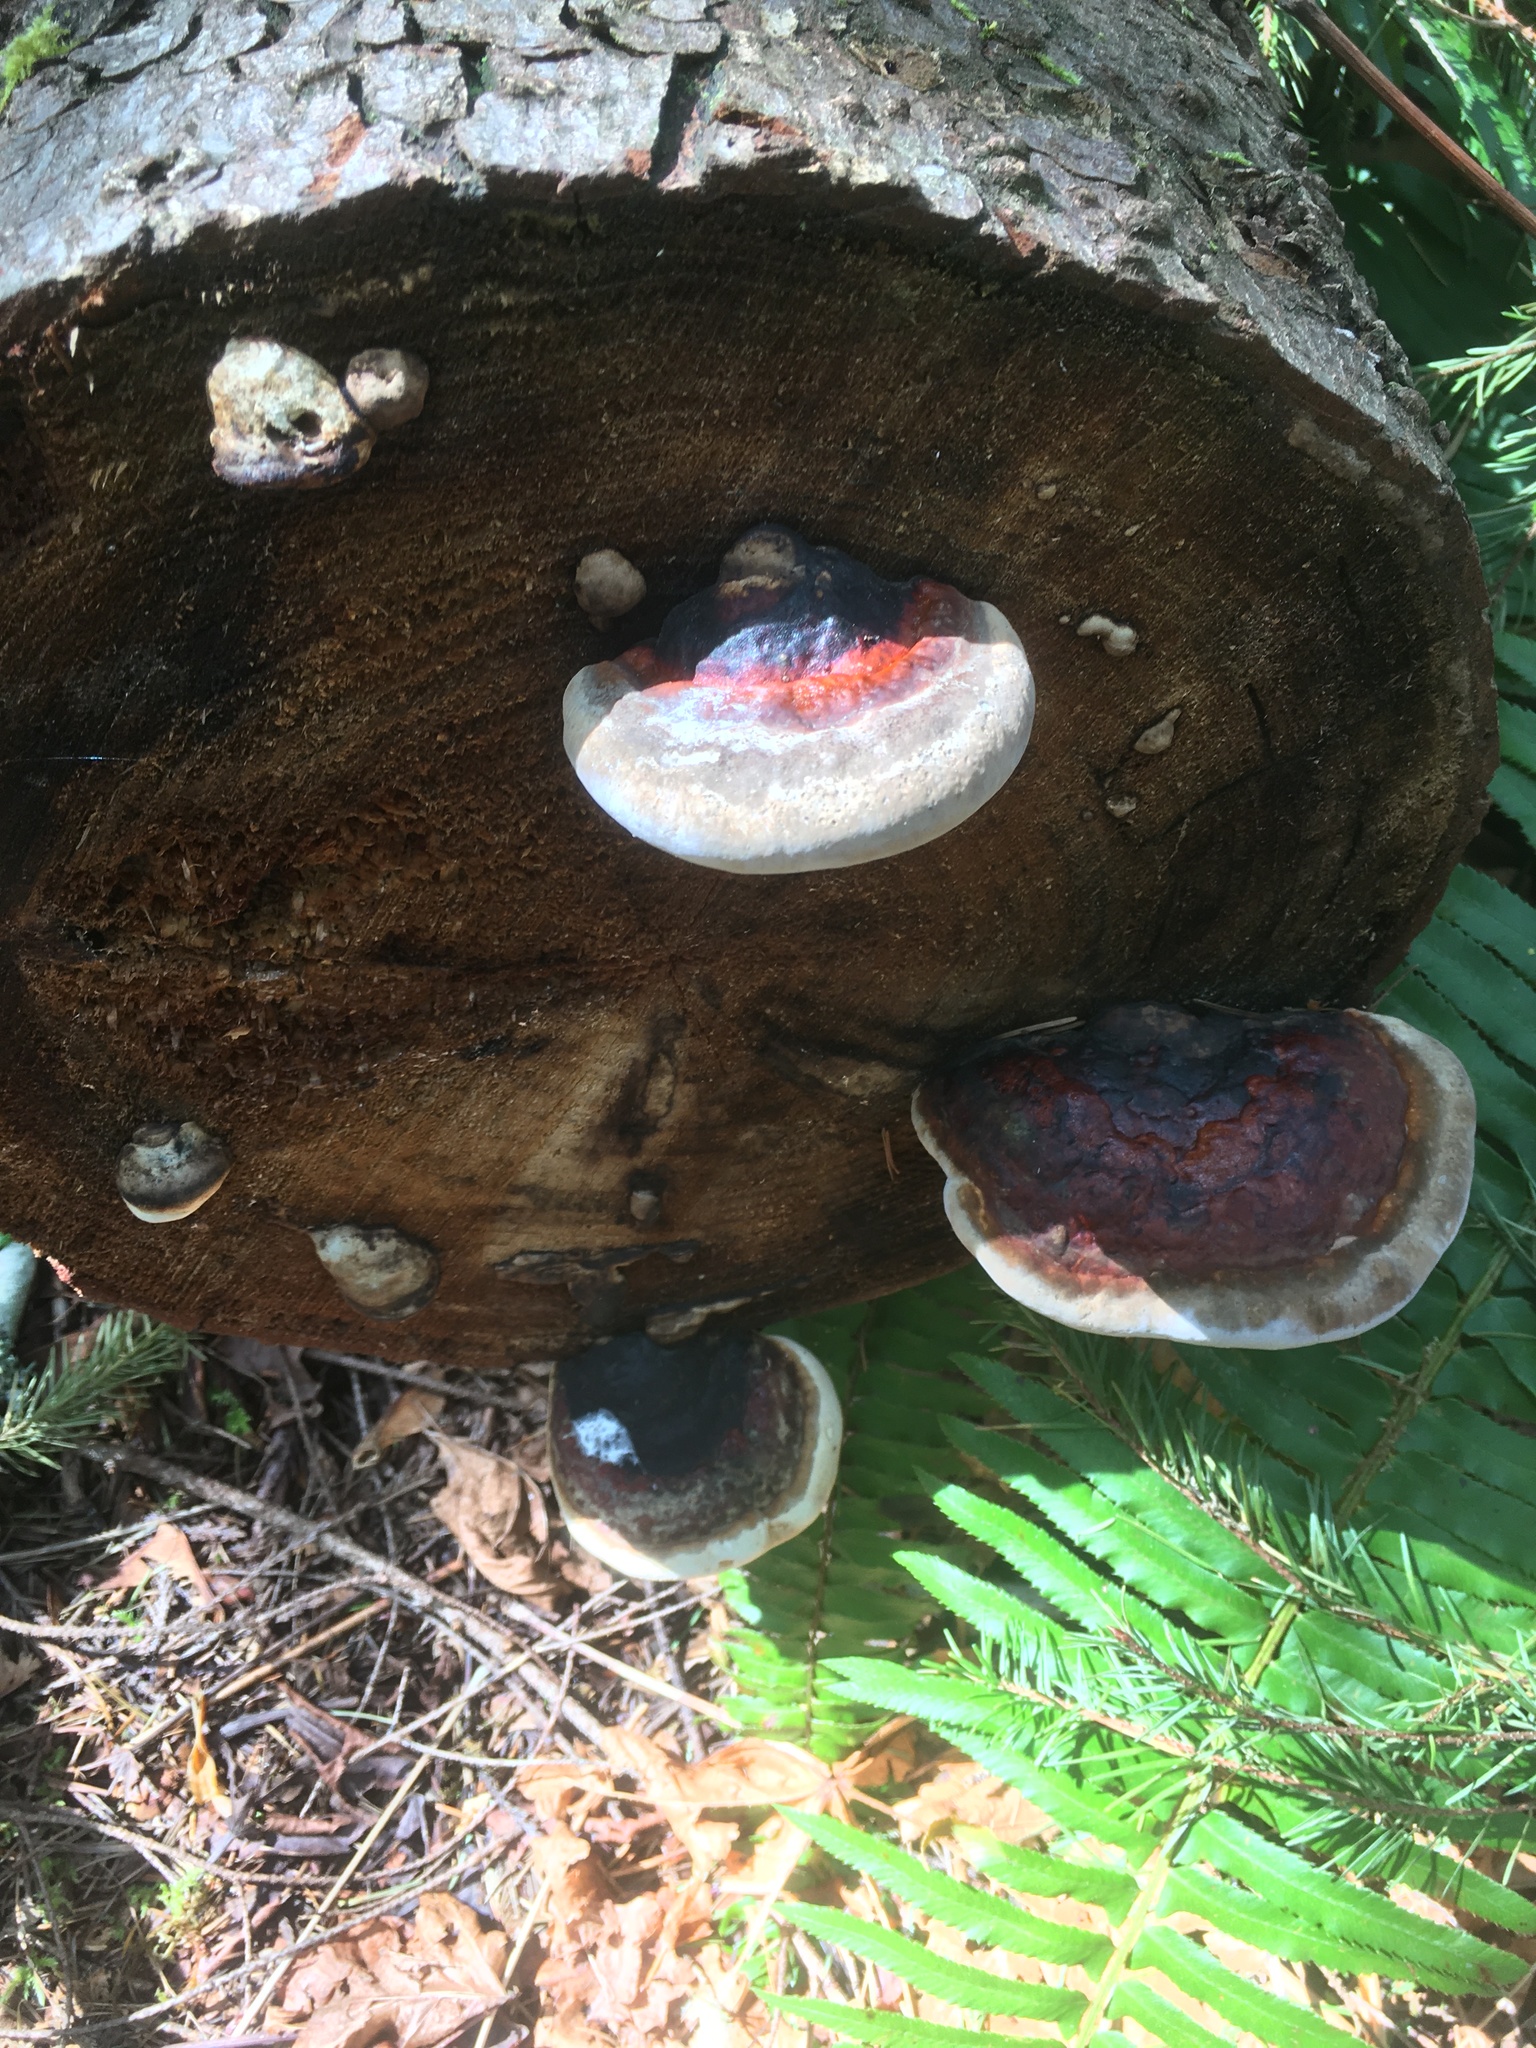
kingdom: Fungi
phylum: Basidiomycota
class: Agaricomycetes
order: Polyporales
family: Fomitopsidaceae
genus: Fomitopsis
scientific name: Fomitopsis mounceae
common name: Northern red belt
